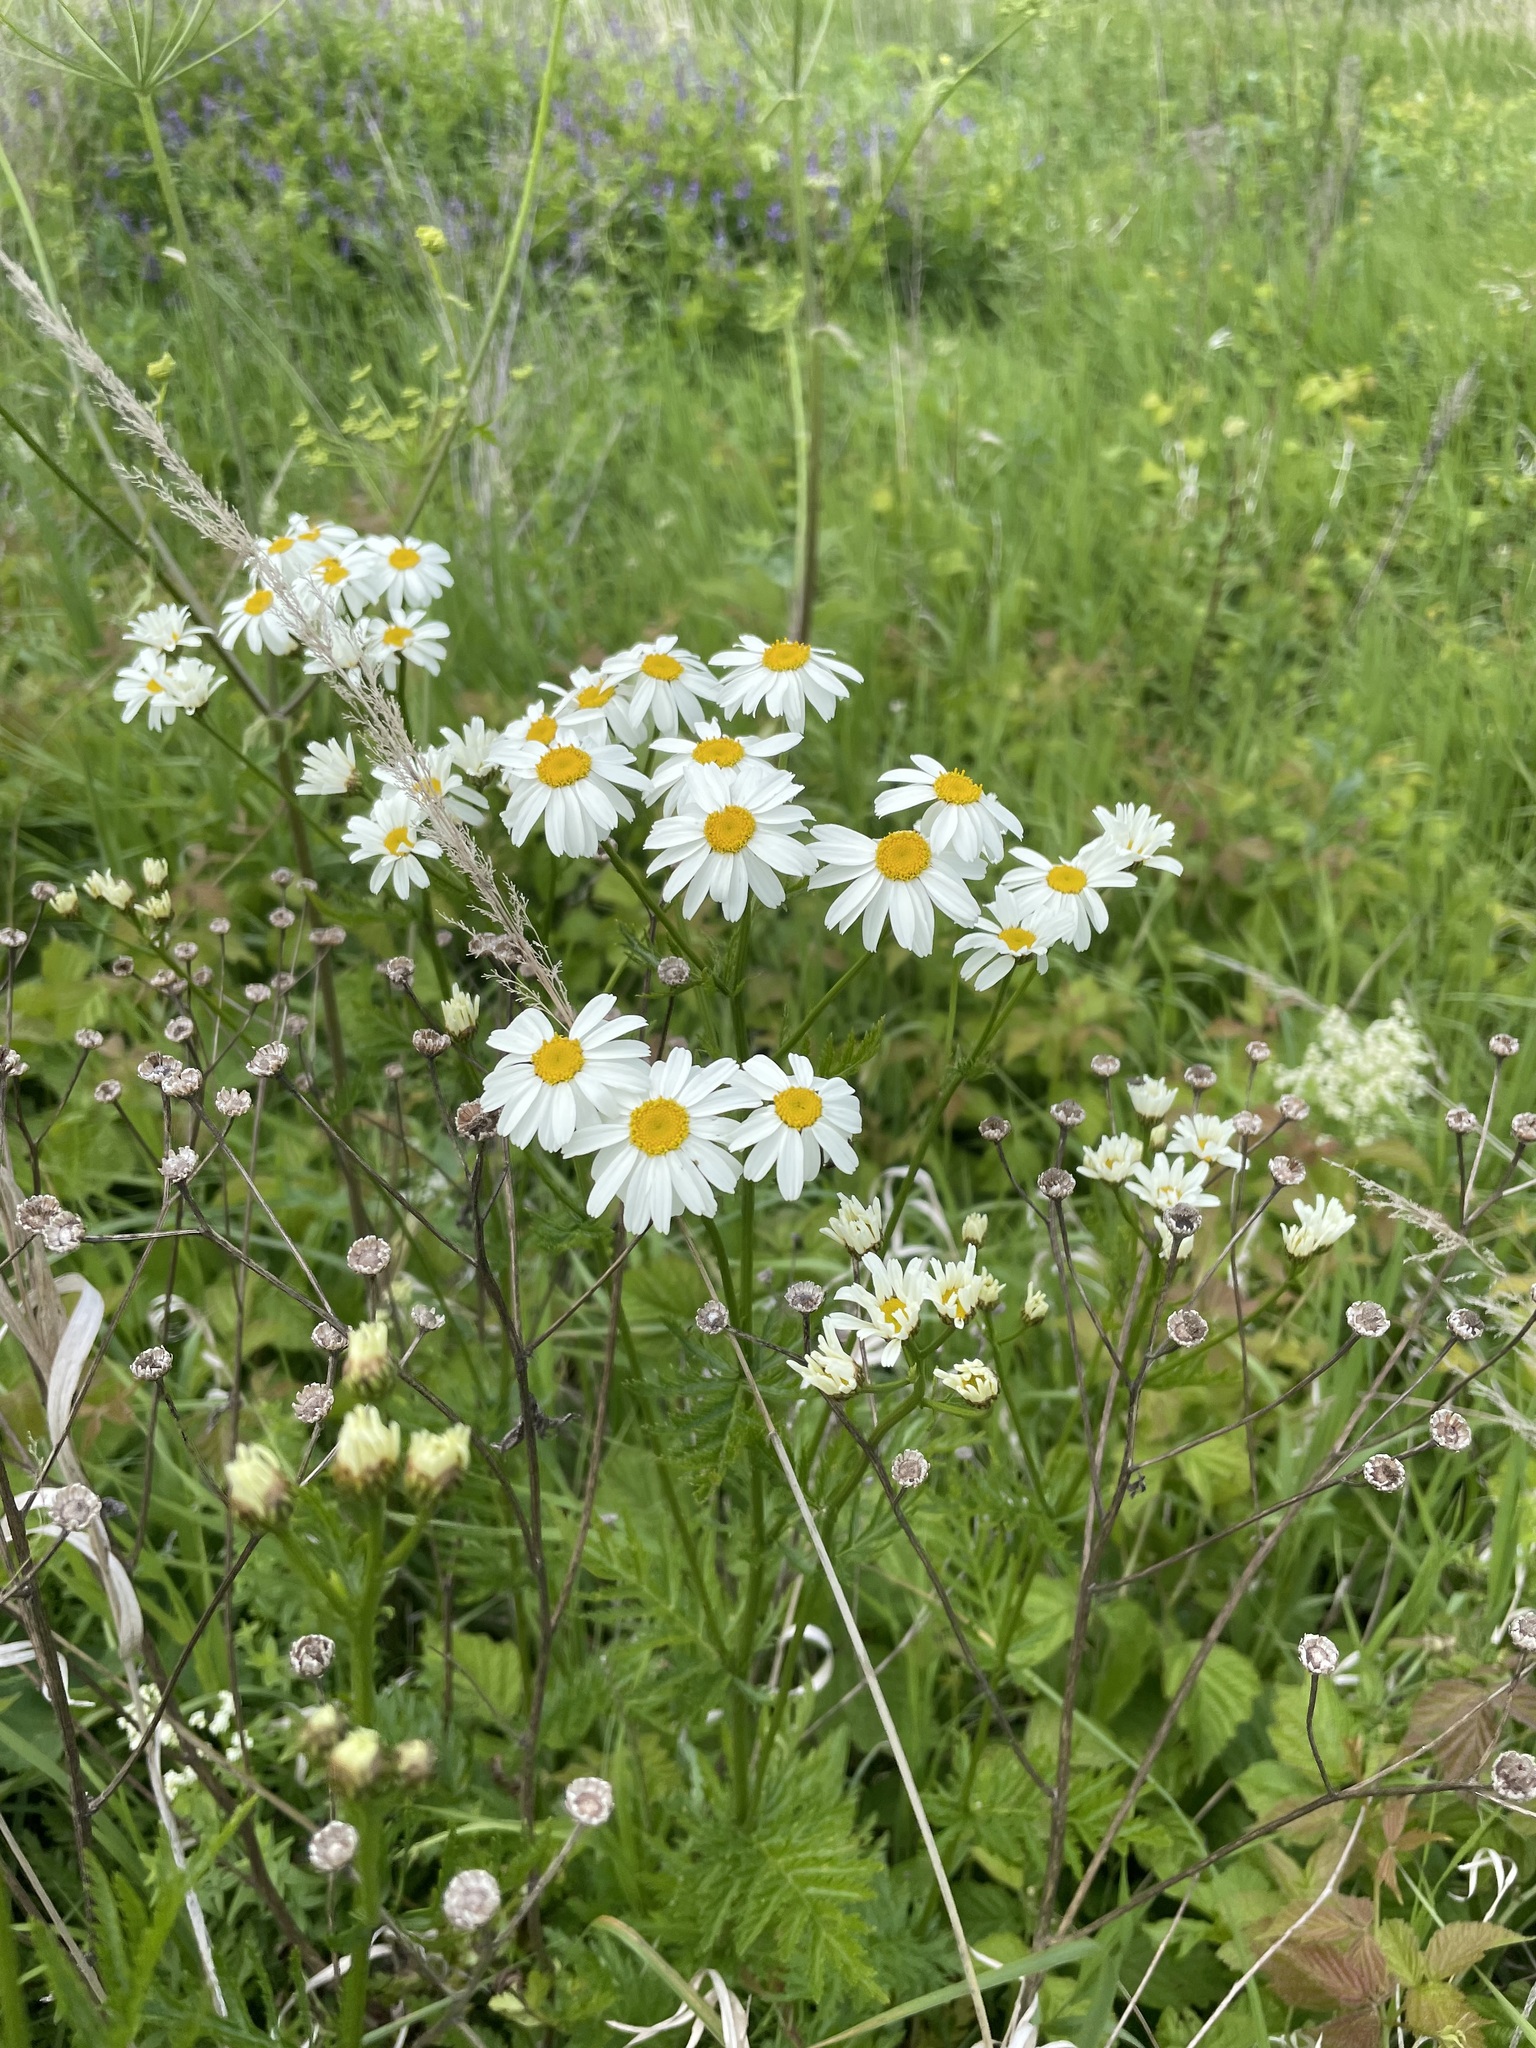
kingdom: Plantae
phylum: Tracheophyta
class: Magnoliopsida
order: Asterales
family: Asteraceae
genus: Tanacetum
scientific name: Tanacetum corymbosum
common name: Scentless feverfew
